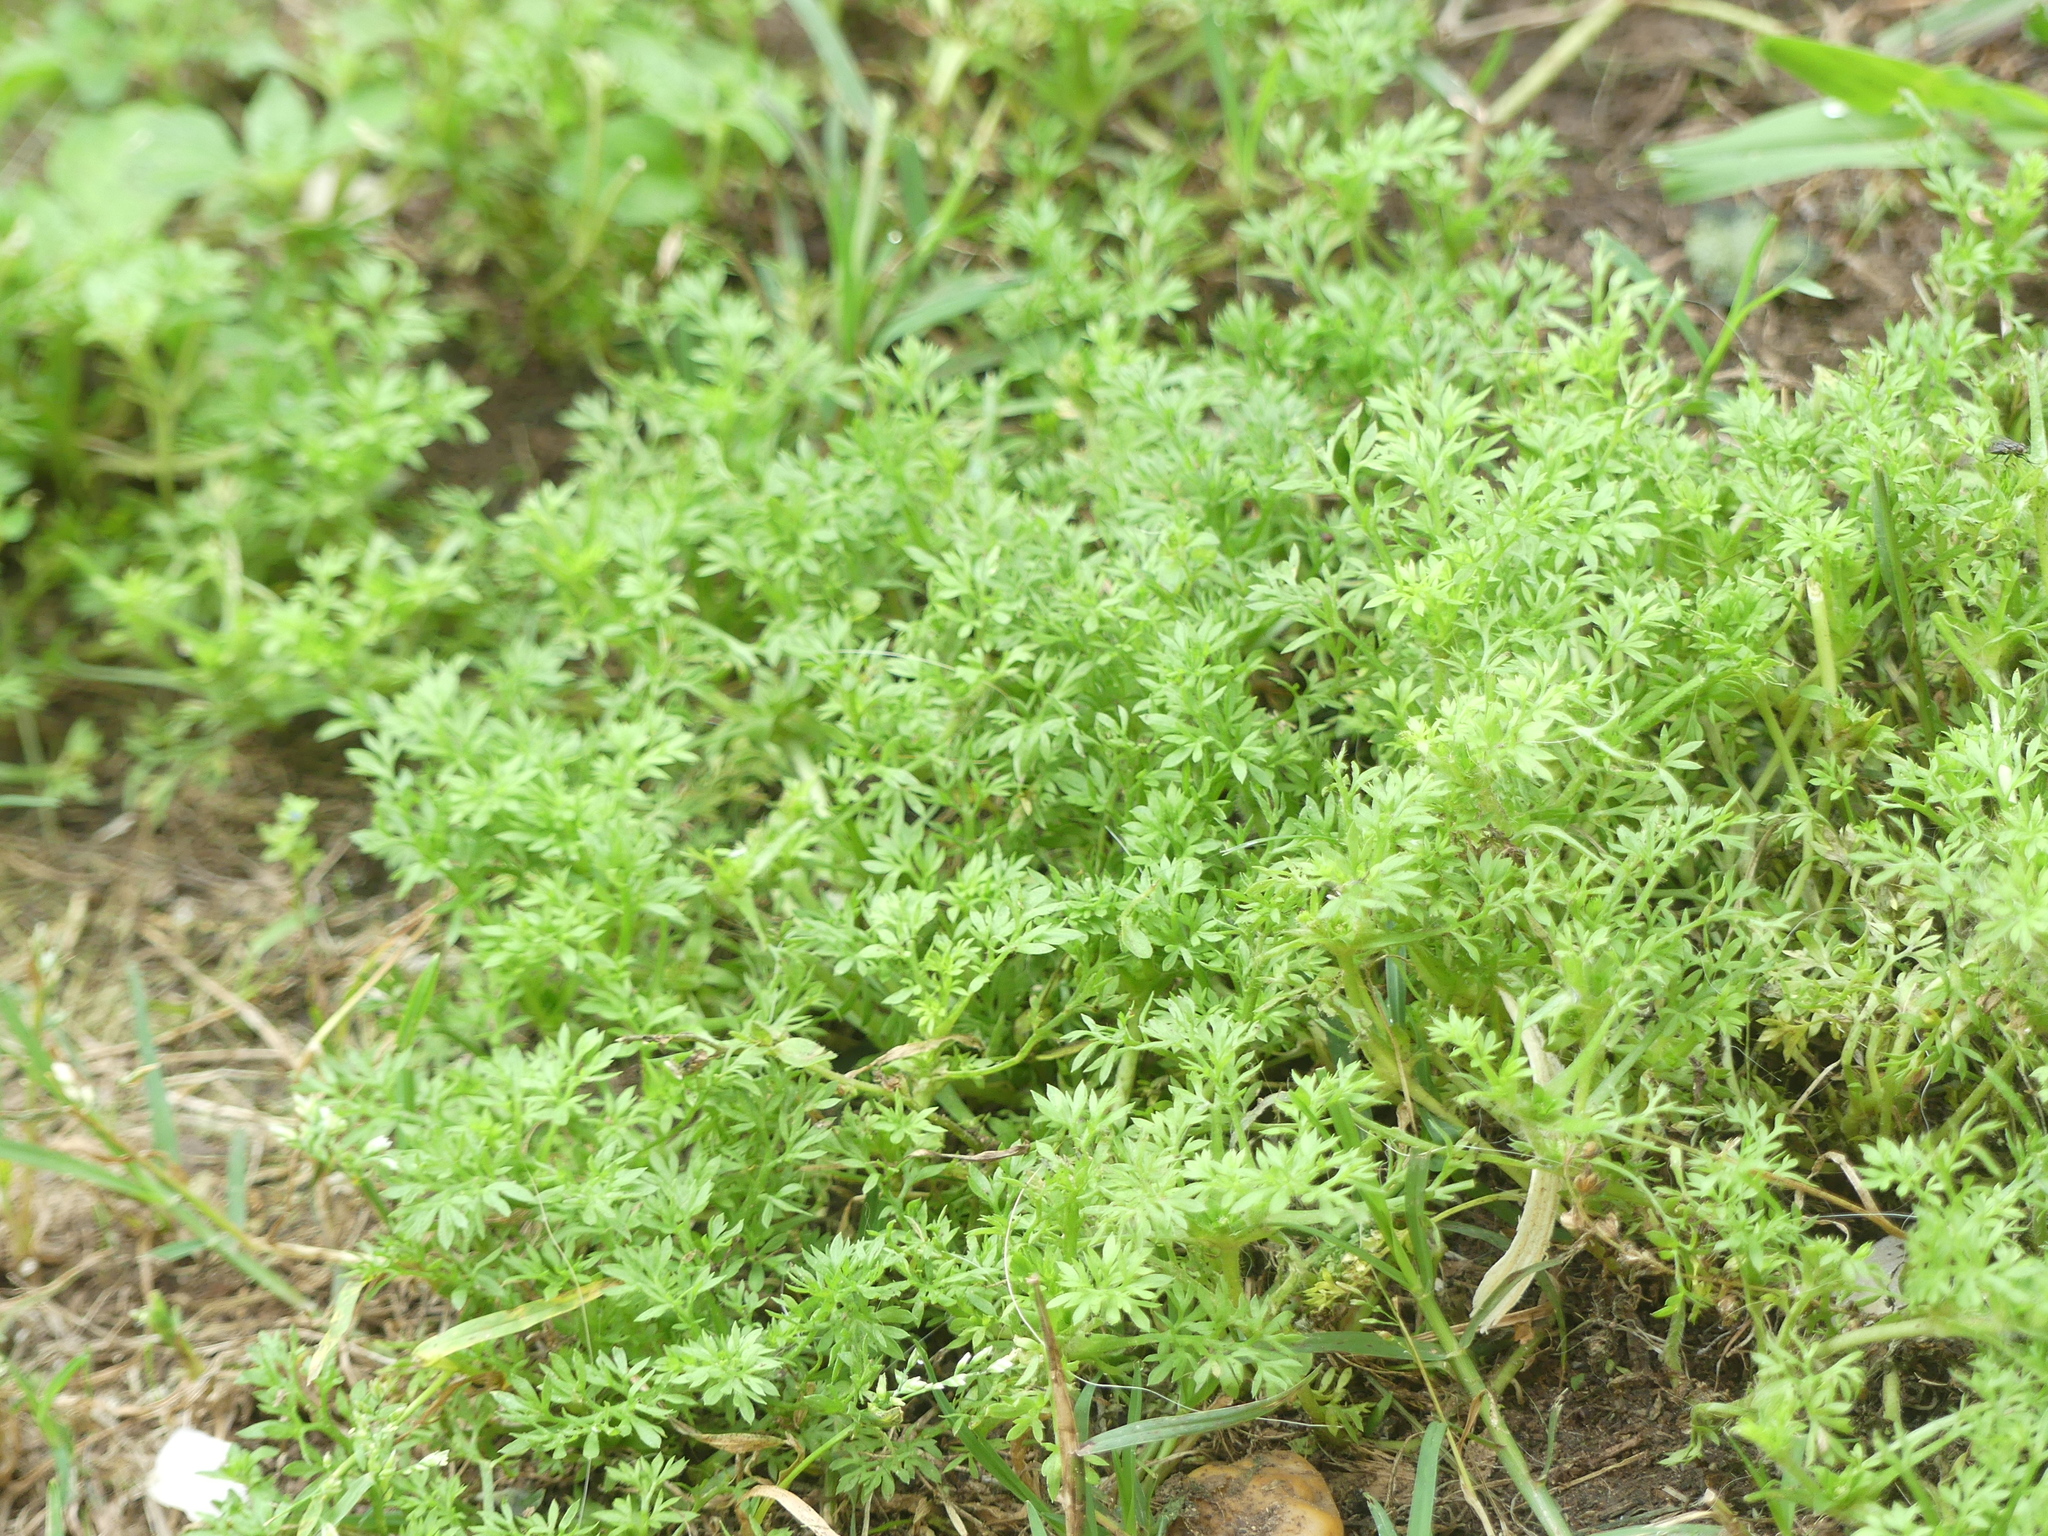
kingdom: Plantae
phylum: Tracheophyta
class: Magnoliopsida
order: Asterales
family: Asteraceae
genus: Soliva
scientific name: Soliva sessilis
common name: Field burrweed
